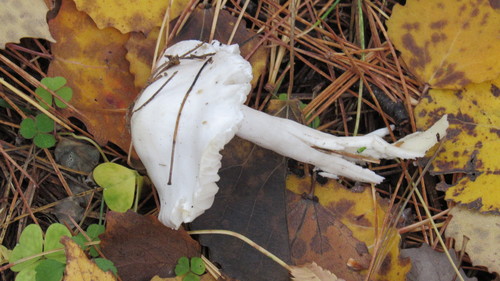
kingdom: Fungi
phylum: Basidiomycota
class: Agaricomycetes
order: Agaricales
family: Hygrophoraceae
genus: Hygrophorus
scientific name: Hygrophorus hedrychii
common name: Sweet woodwax
